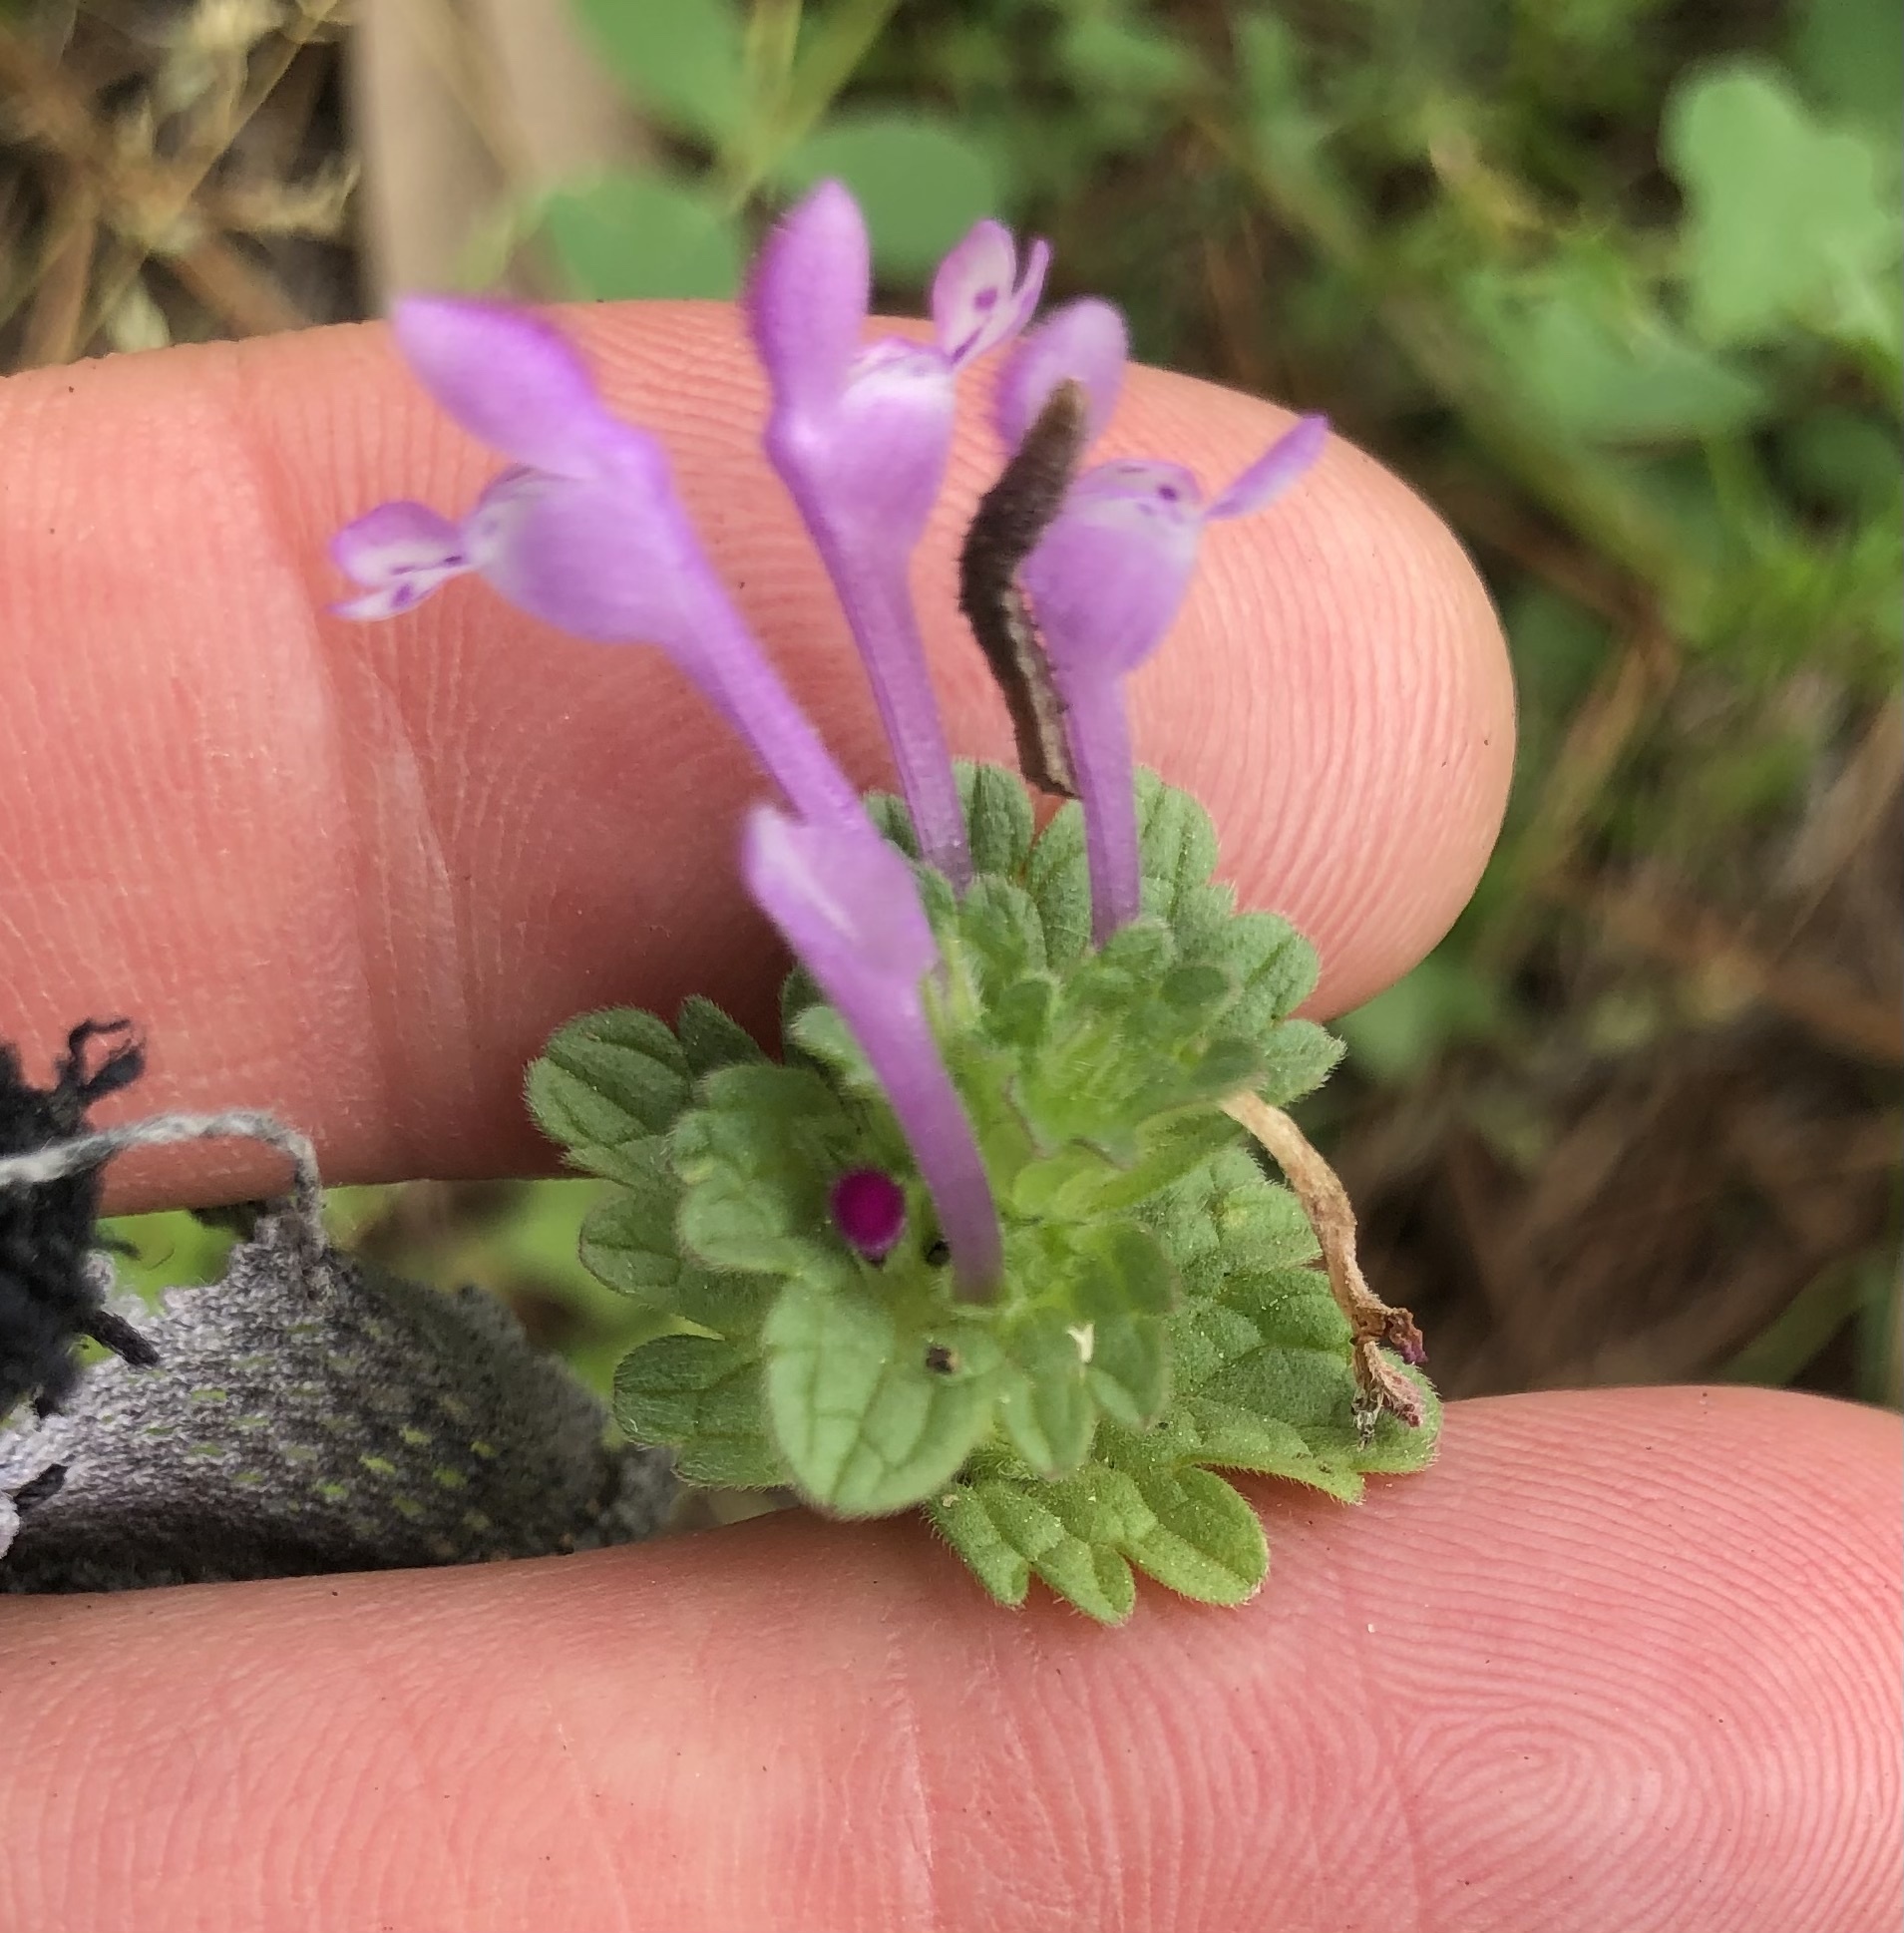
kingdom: Plantae
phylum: Tracheophyta
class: Magnoliopsida
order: Lamiales
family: Lamiaceae
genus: Lamium
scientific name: Lamium amplexicaule
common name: Henbit dead-nettle
